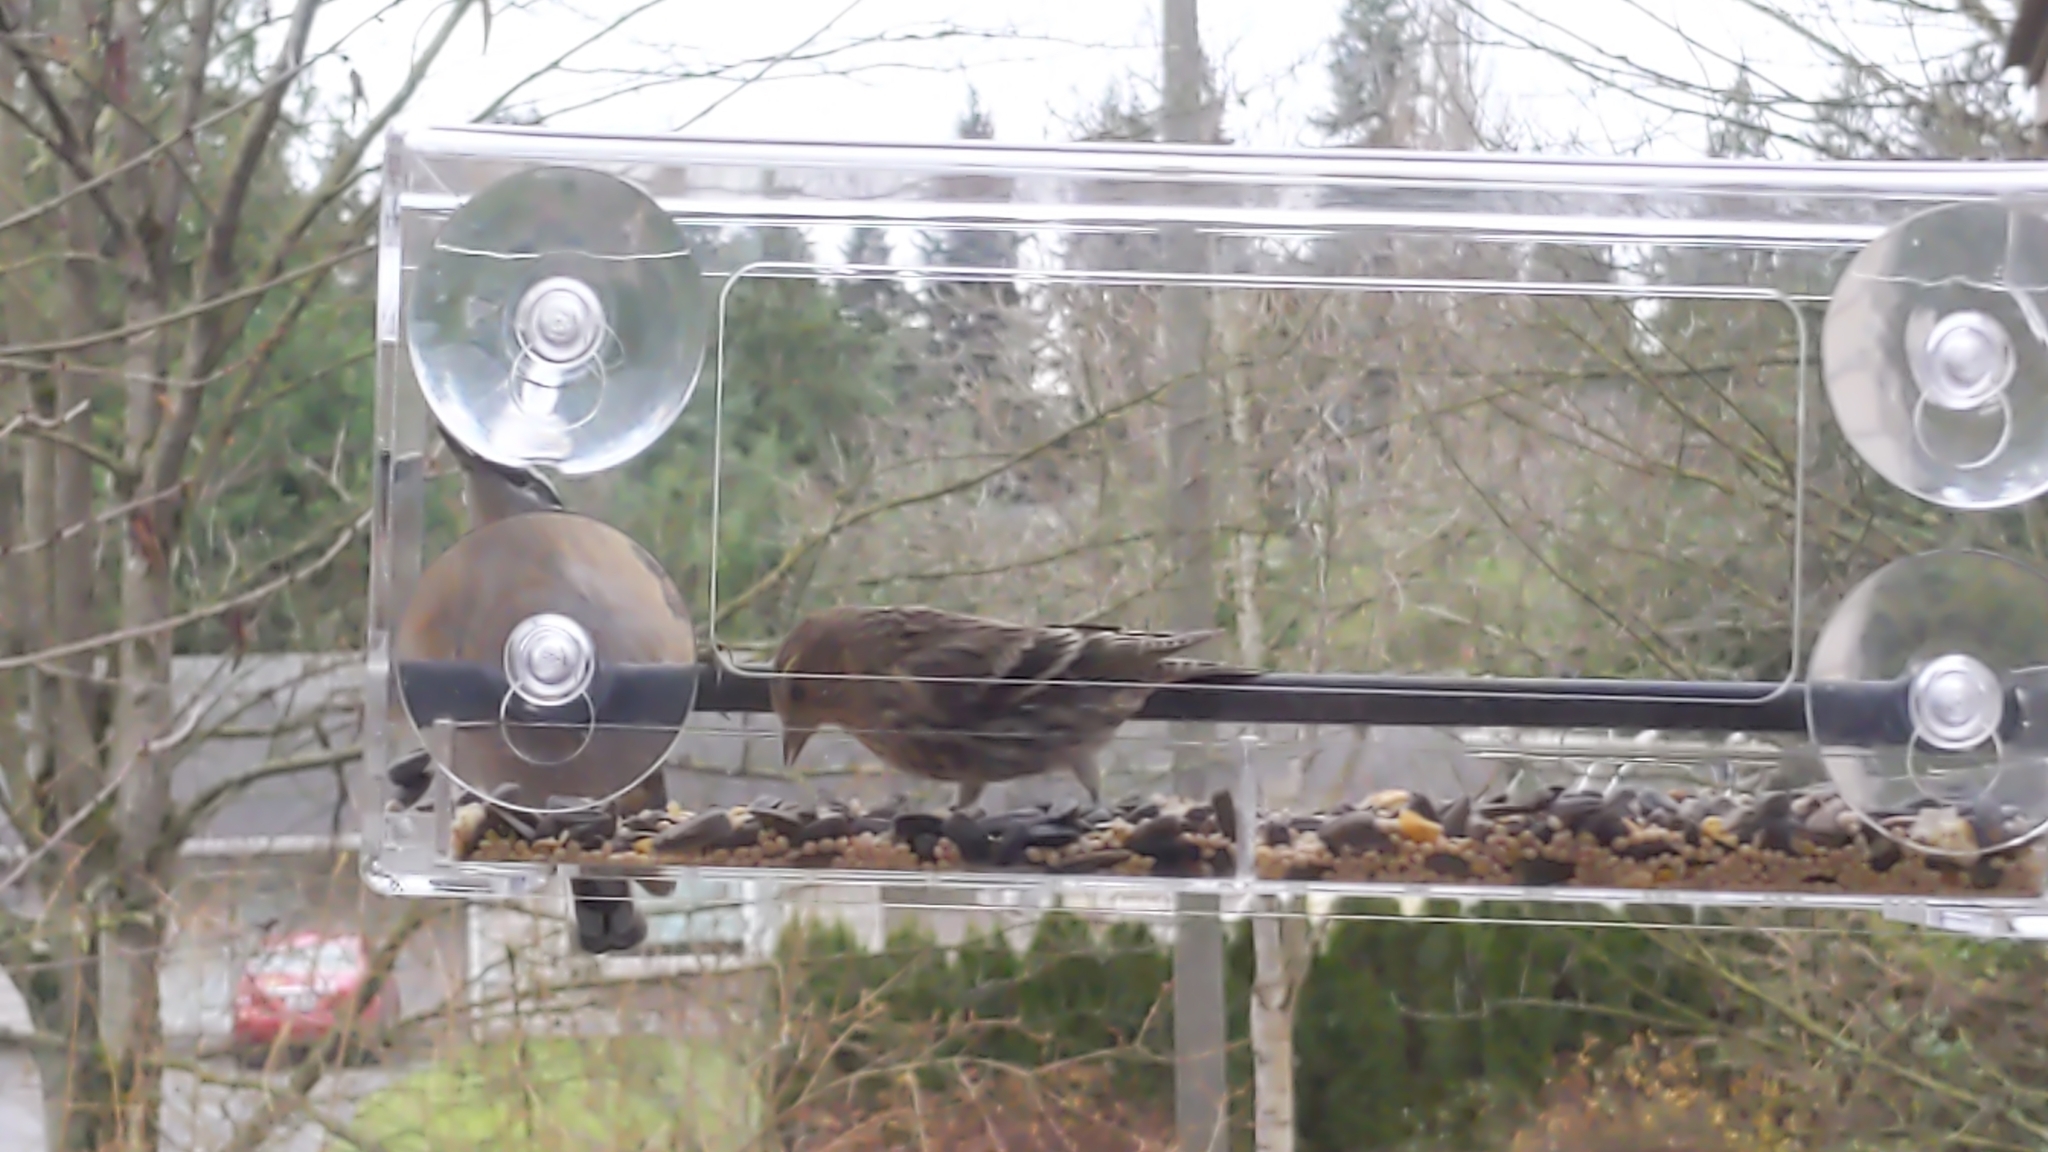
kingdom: Animalia
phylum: Chordata
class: Aves
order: Passeriformes
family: Fringillidae
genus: Spinus
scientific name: Spinus pinus
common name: Pine siskin
